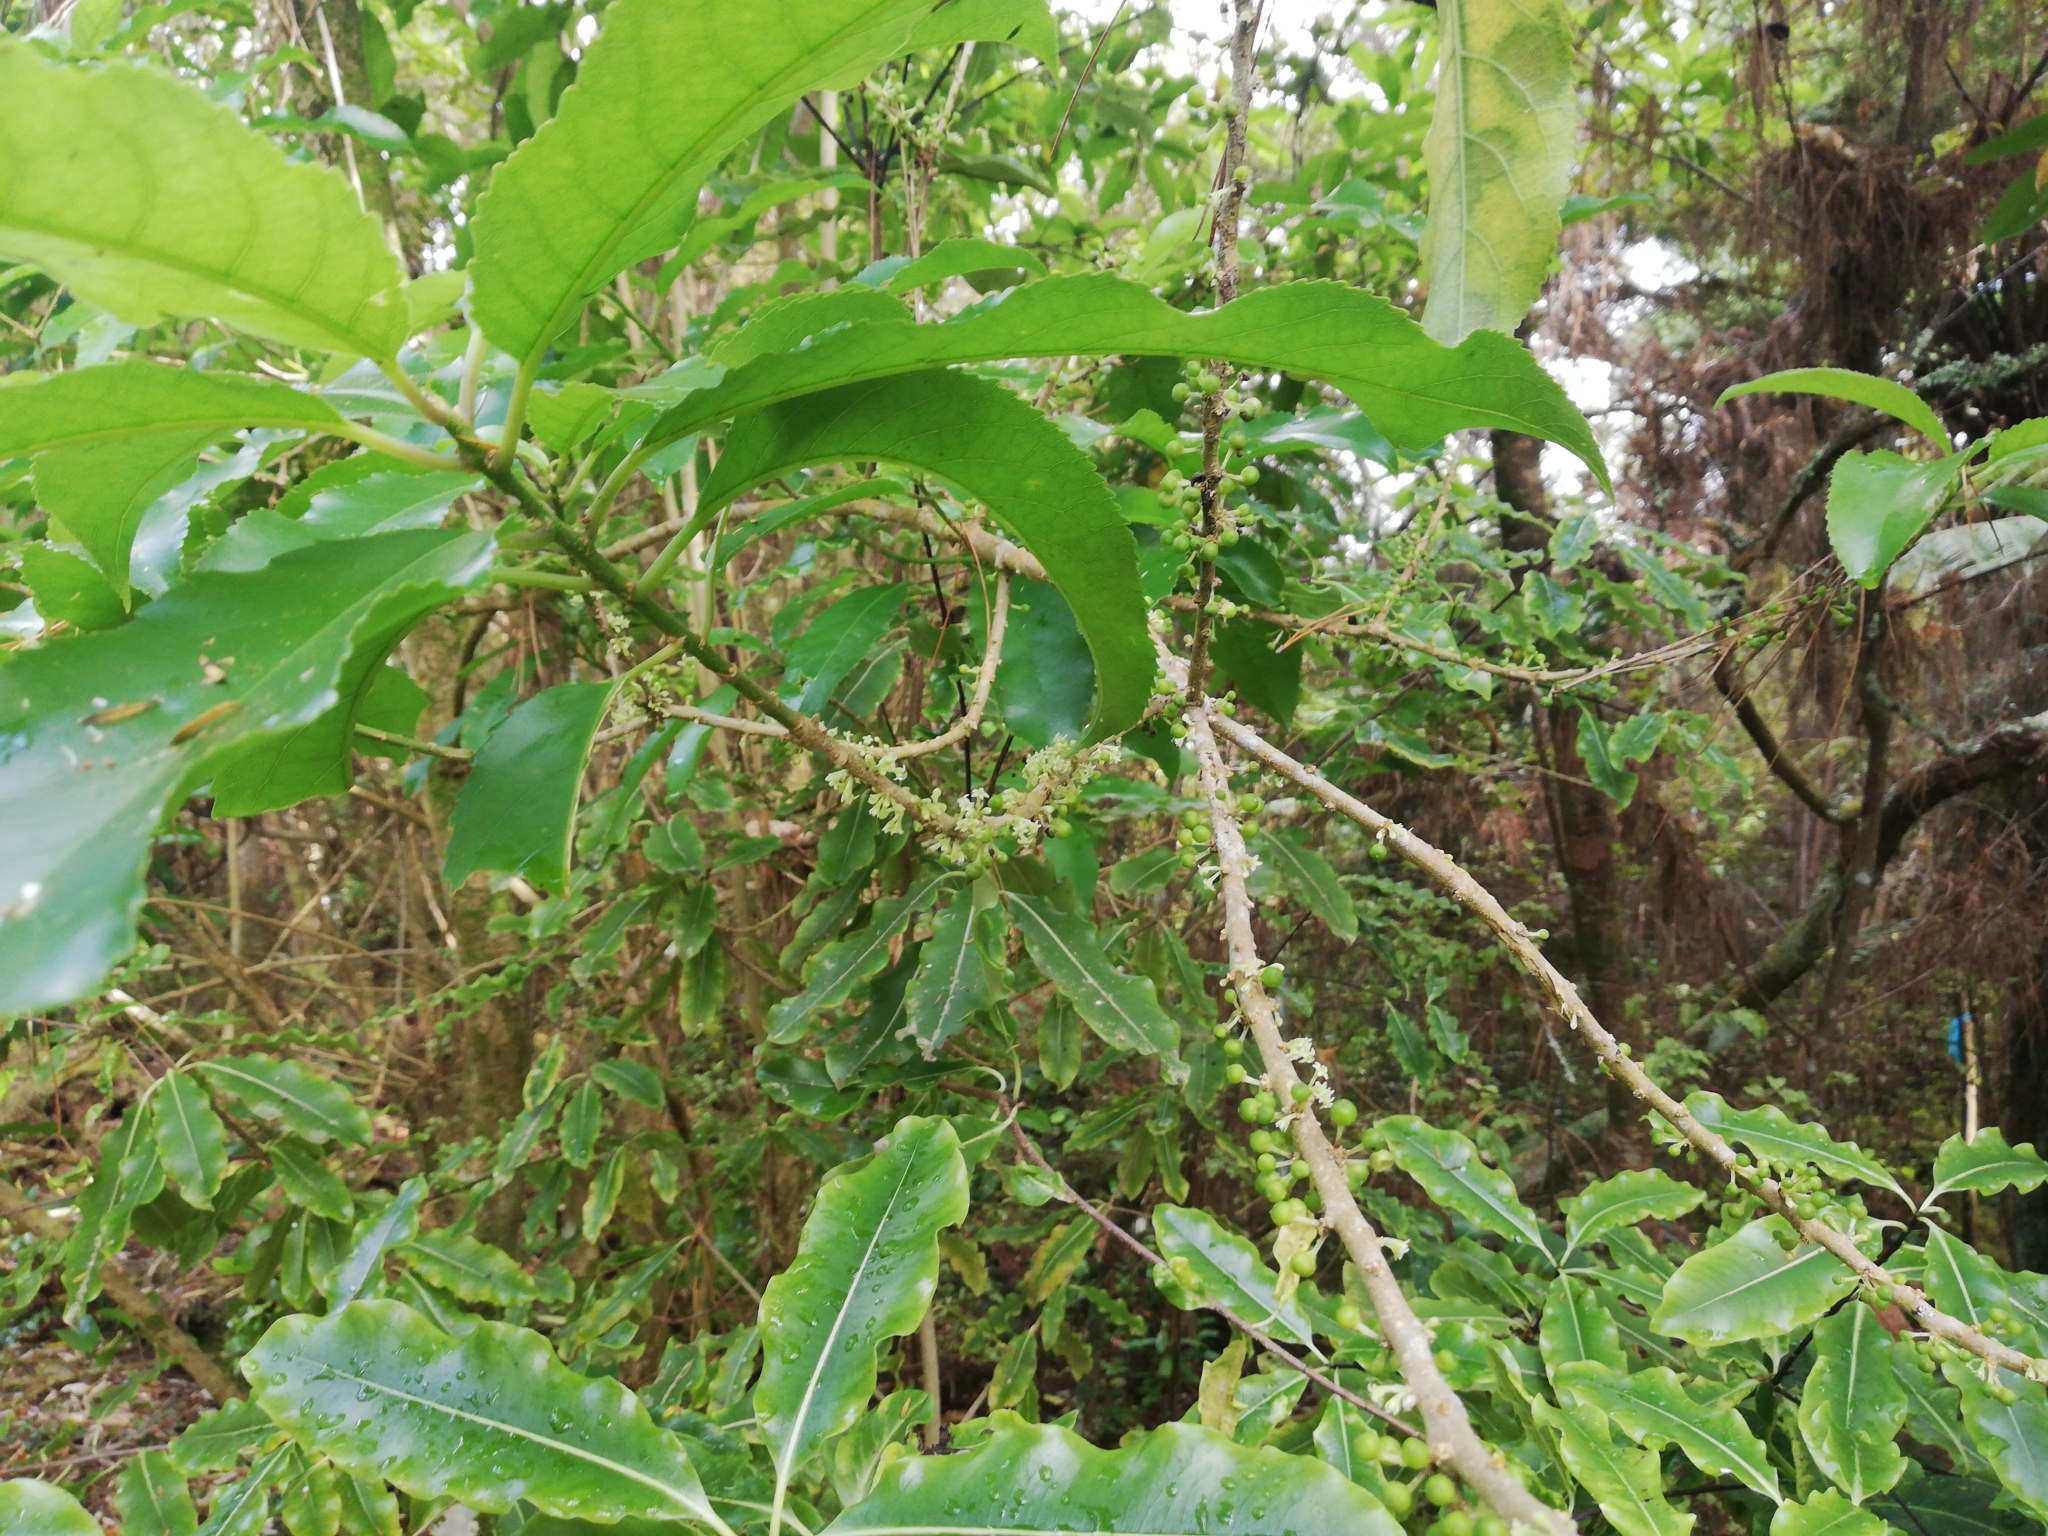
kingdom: Plantae
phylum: Tracheophyta
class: Magnoliopsida
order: Malpighiales
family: Violaceae
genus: Melicytus
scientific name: Melicytus ramiflorus
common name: Mahoe
